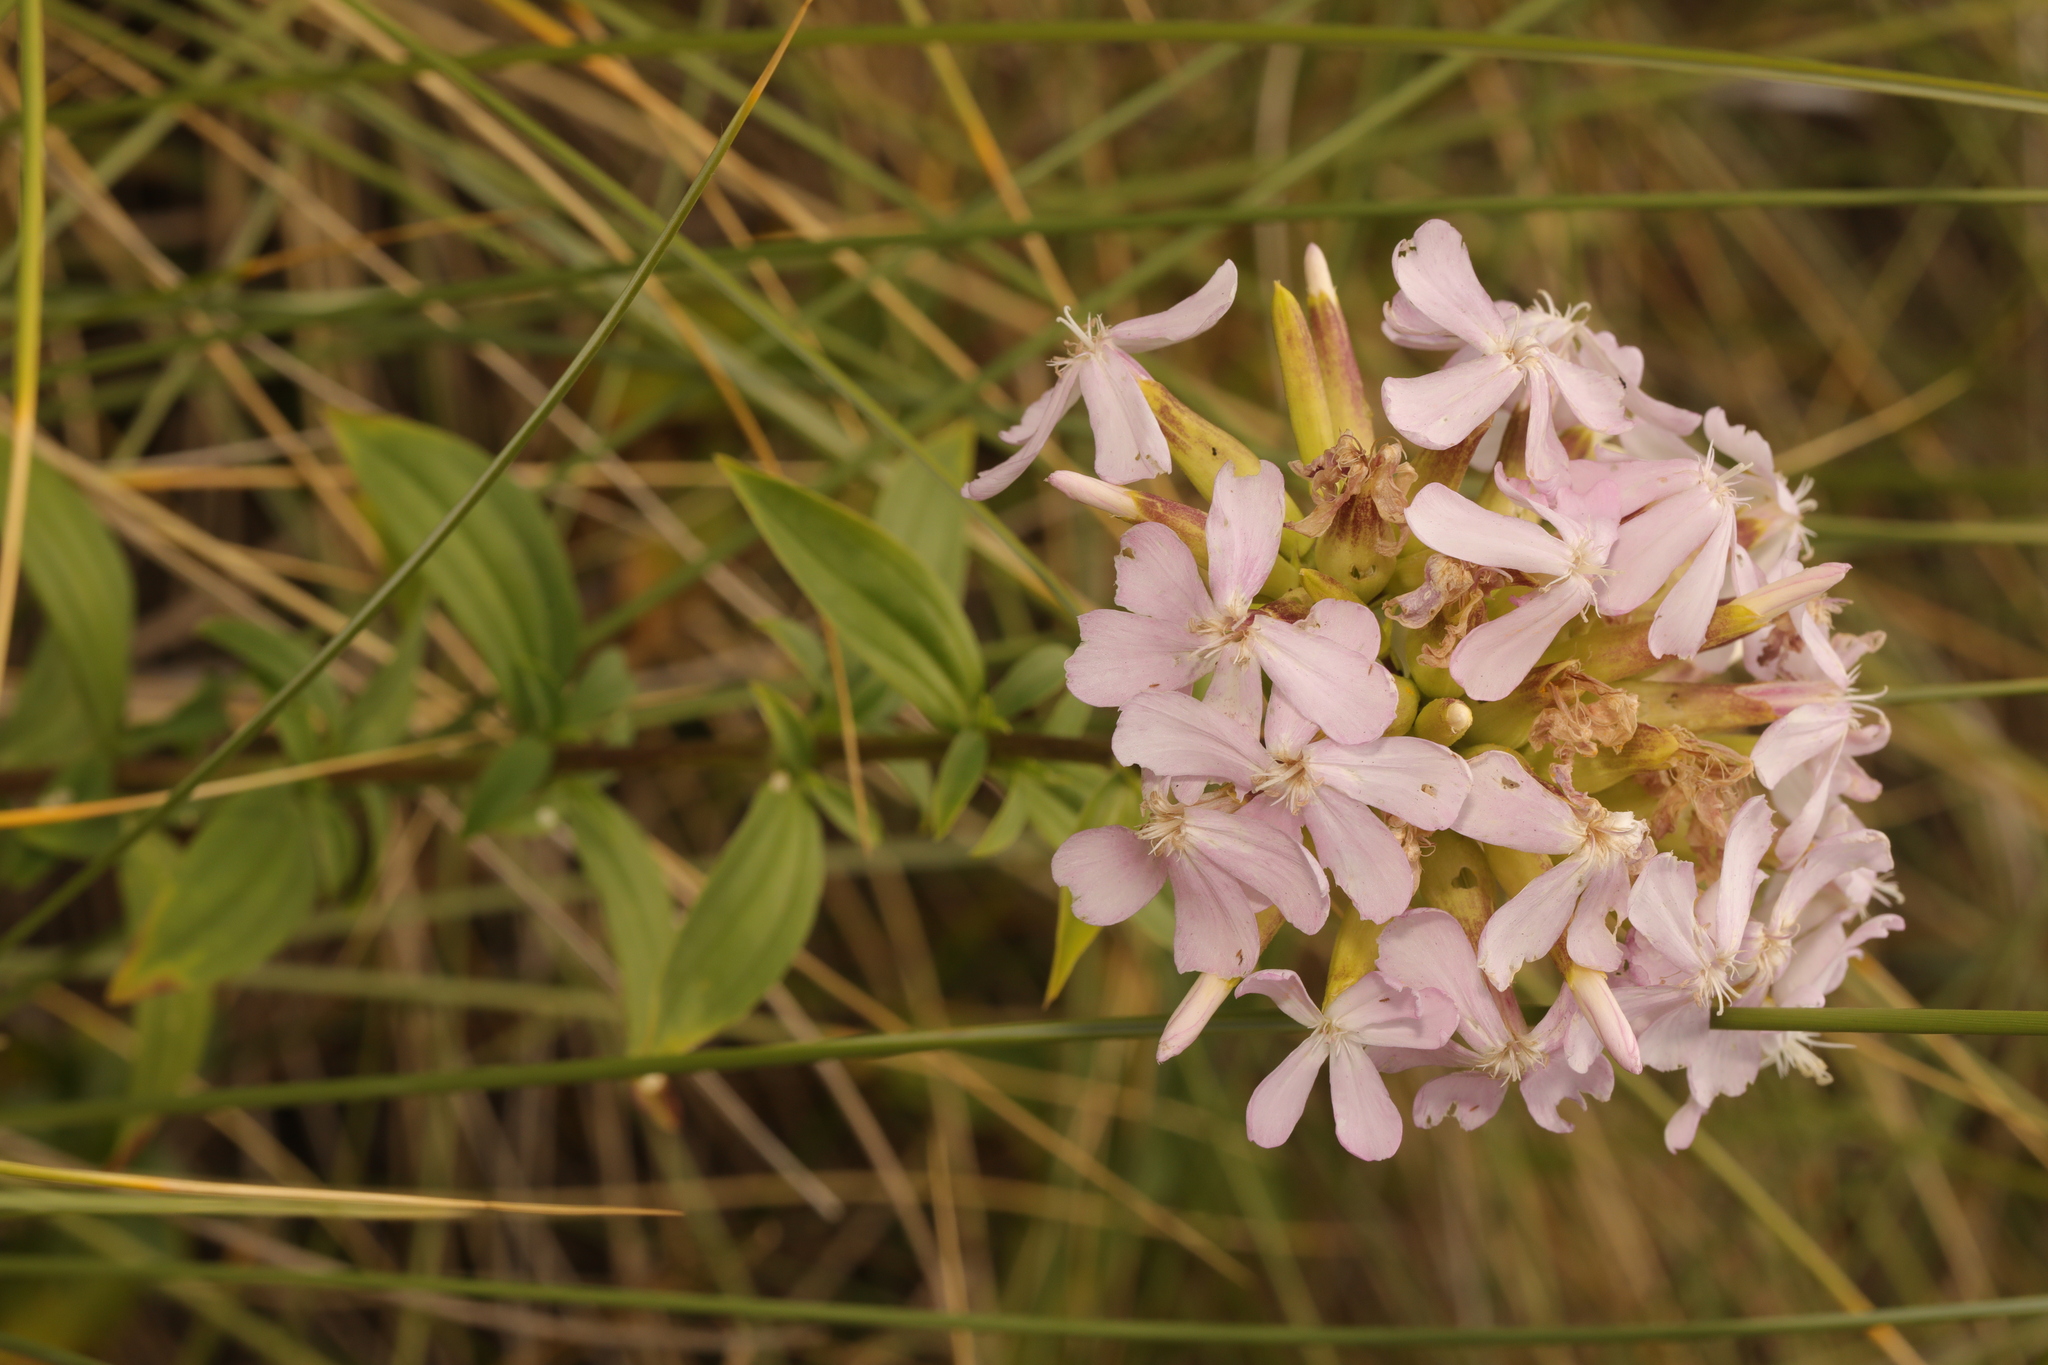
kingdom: Plantae
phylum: Tracheophyta
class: Magnoliopsida
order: Caryophyllales
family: Caryophyllaceae
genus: Saponaria
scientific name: Saponaria officinalis
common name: Soapwort
